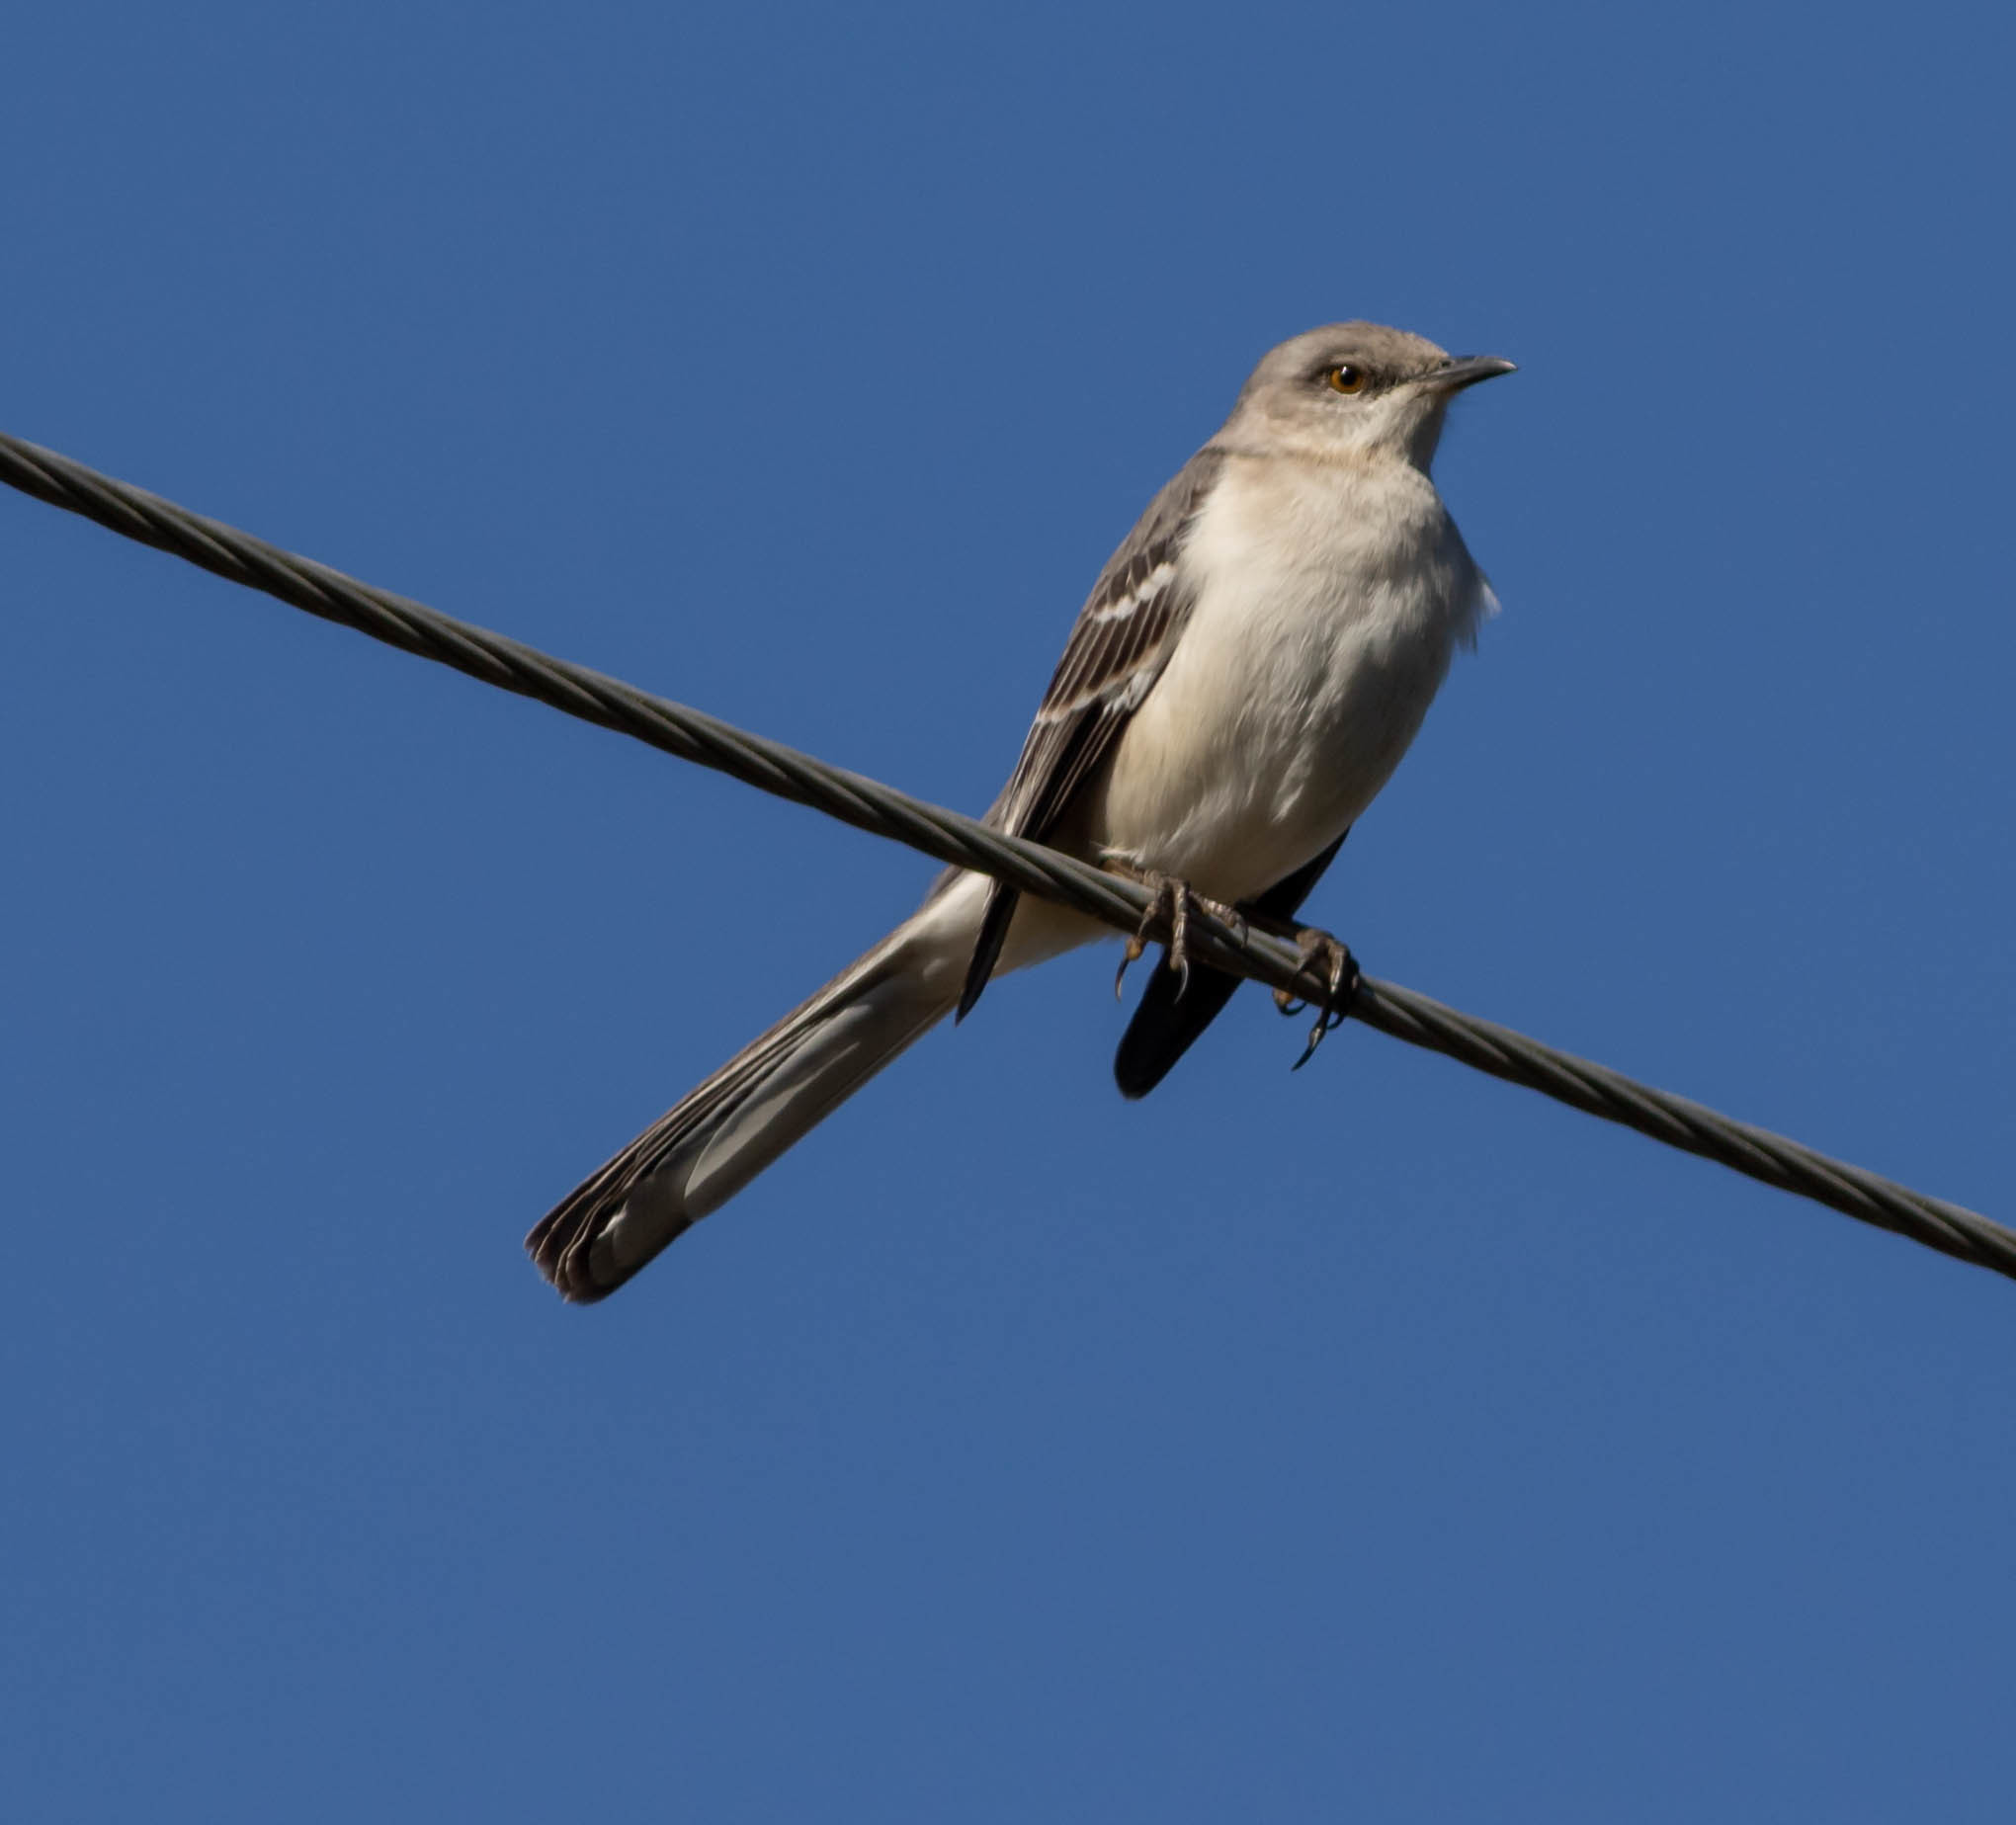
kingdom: Animalia
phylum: Chordata
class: Aves
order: Passeriformes
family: Mimidae
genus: Mimus
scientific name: Mimus polyglottos
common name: Northern mockingbird
